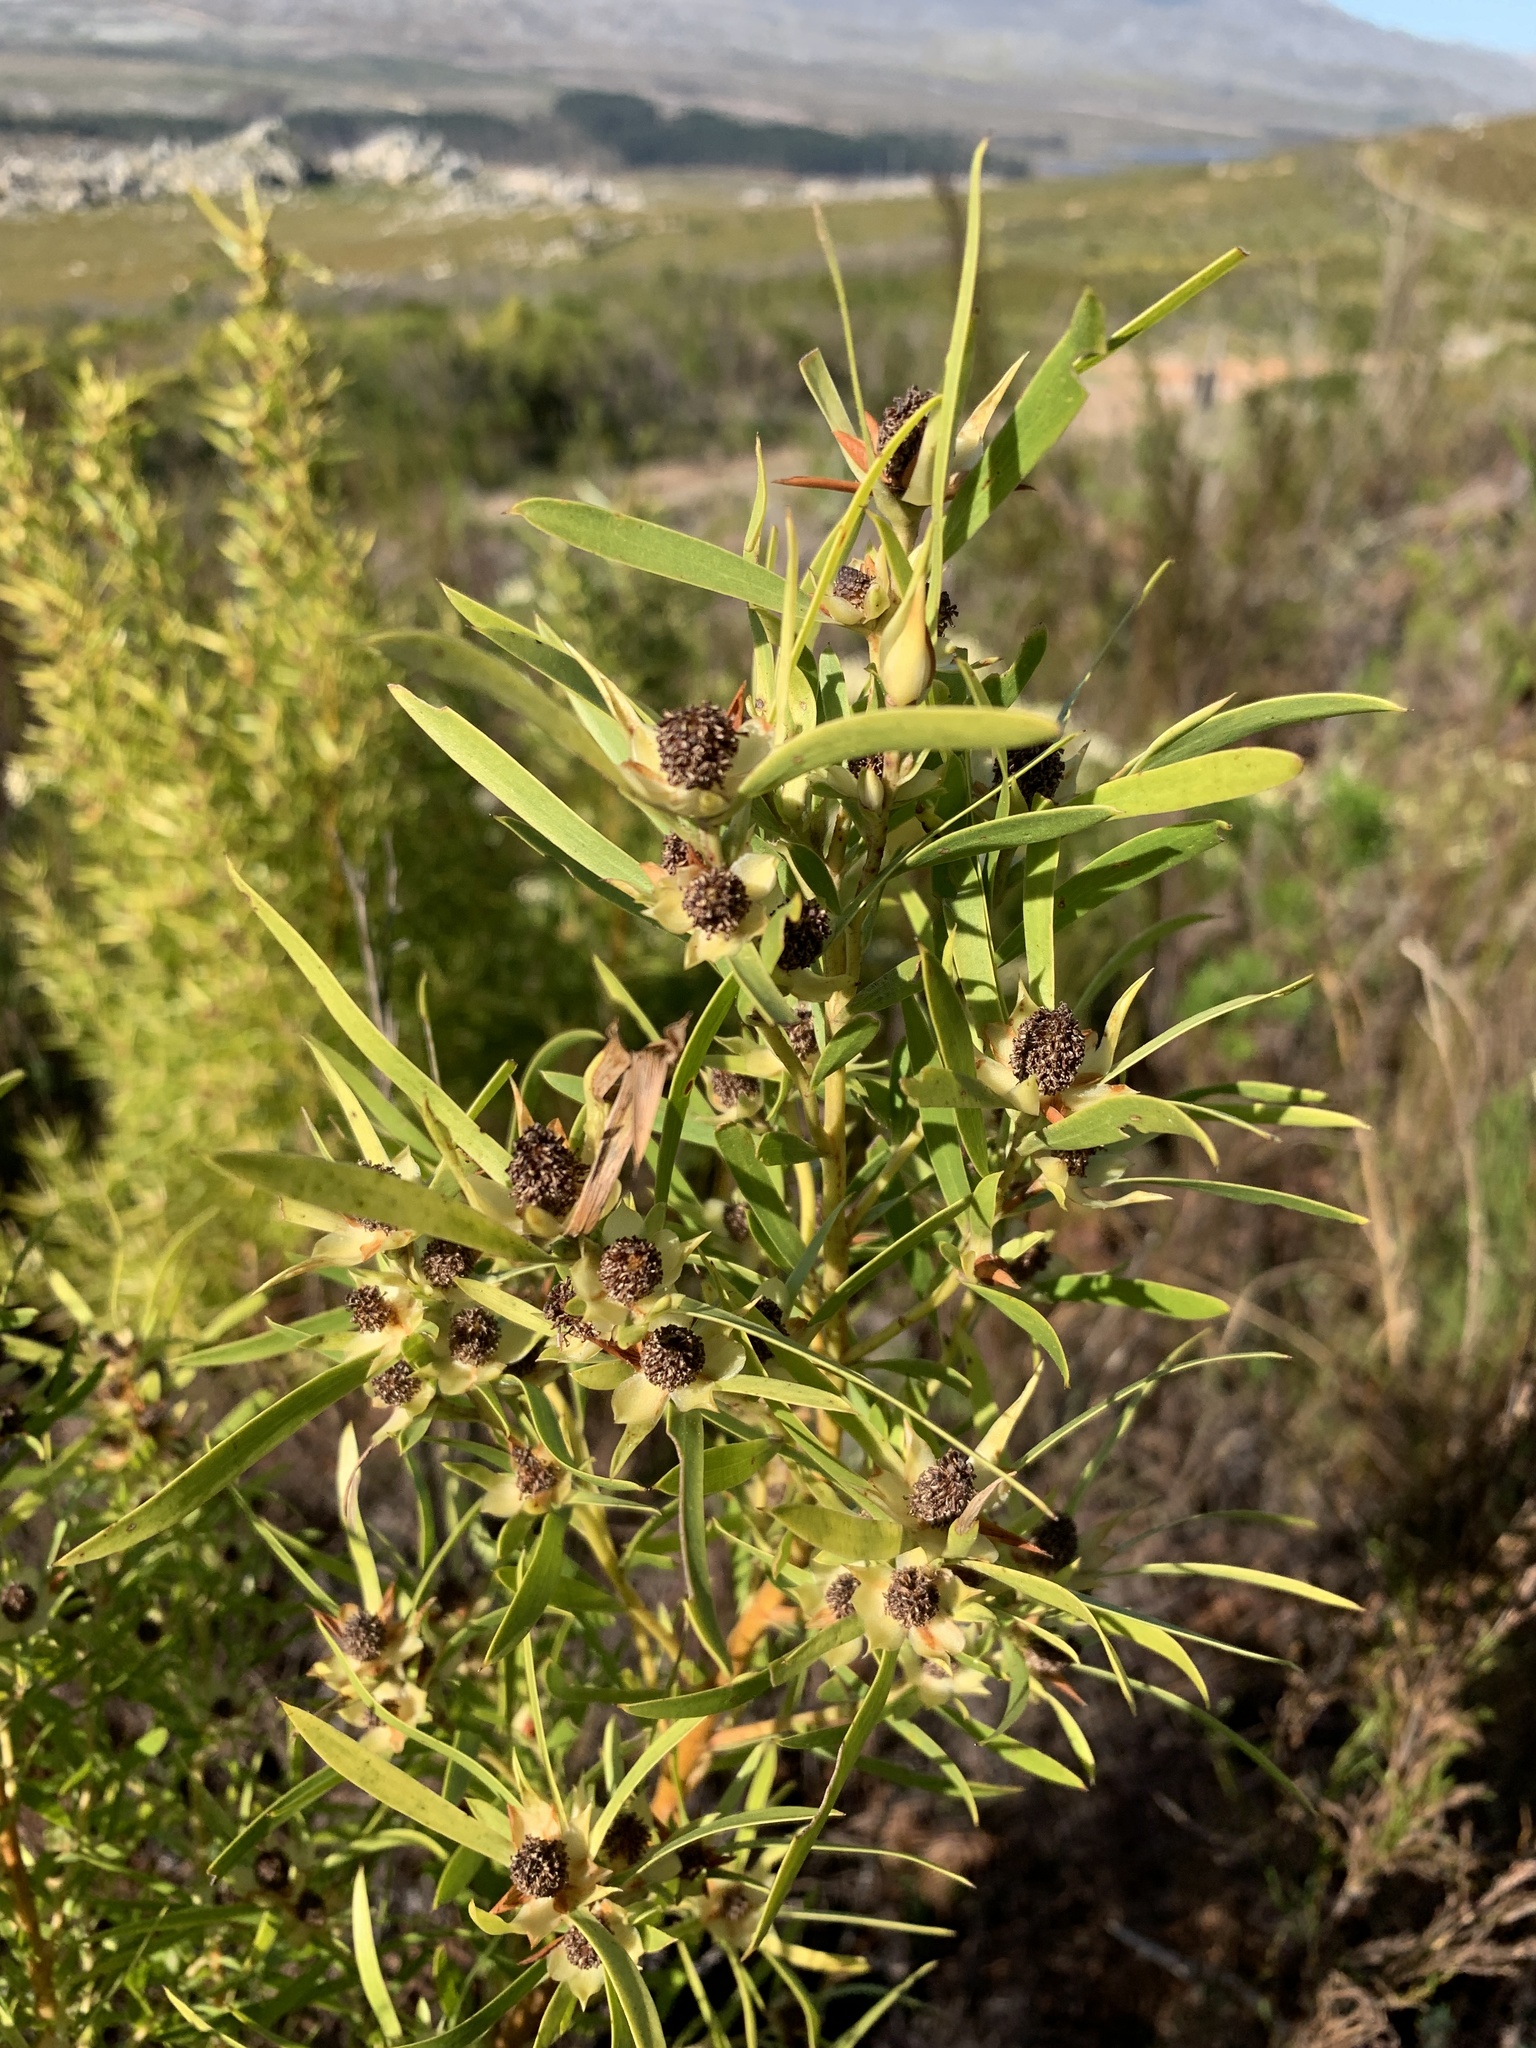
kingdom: Plantae
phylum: Tracheophyta
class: Magnoliopsida
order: Proteales
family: Proteaceae
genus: Leucadendron
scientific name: Leucadendron salicifolium
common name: Common stream conebush
